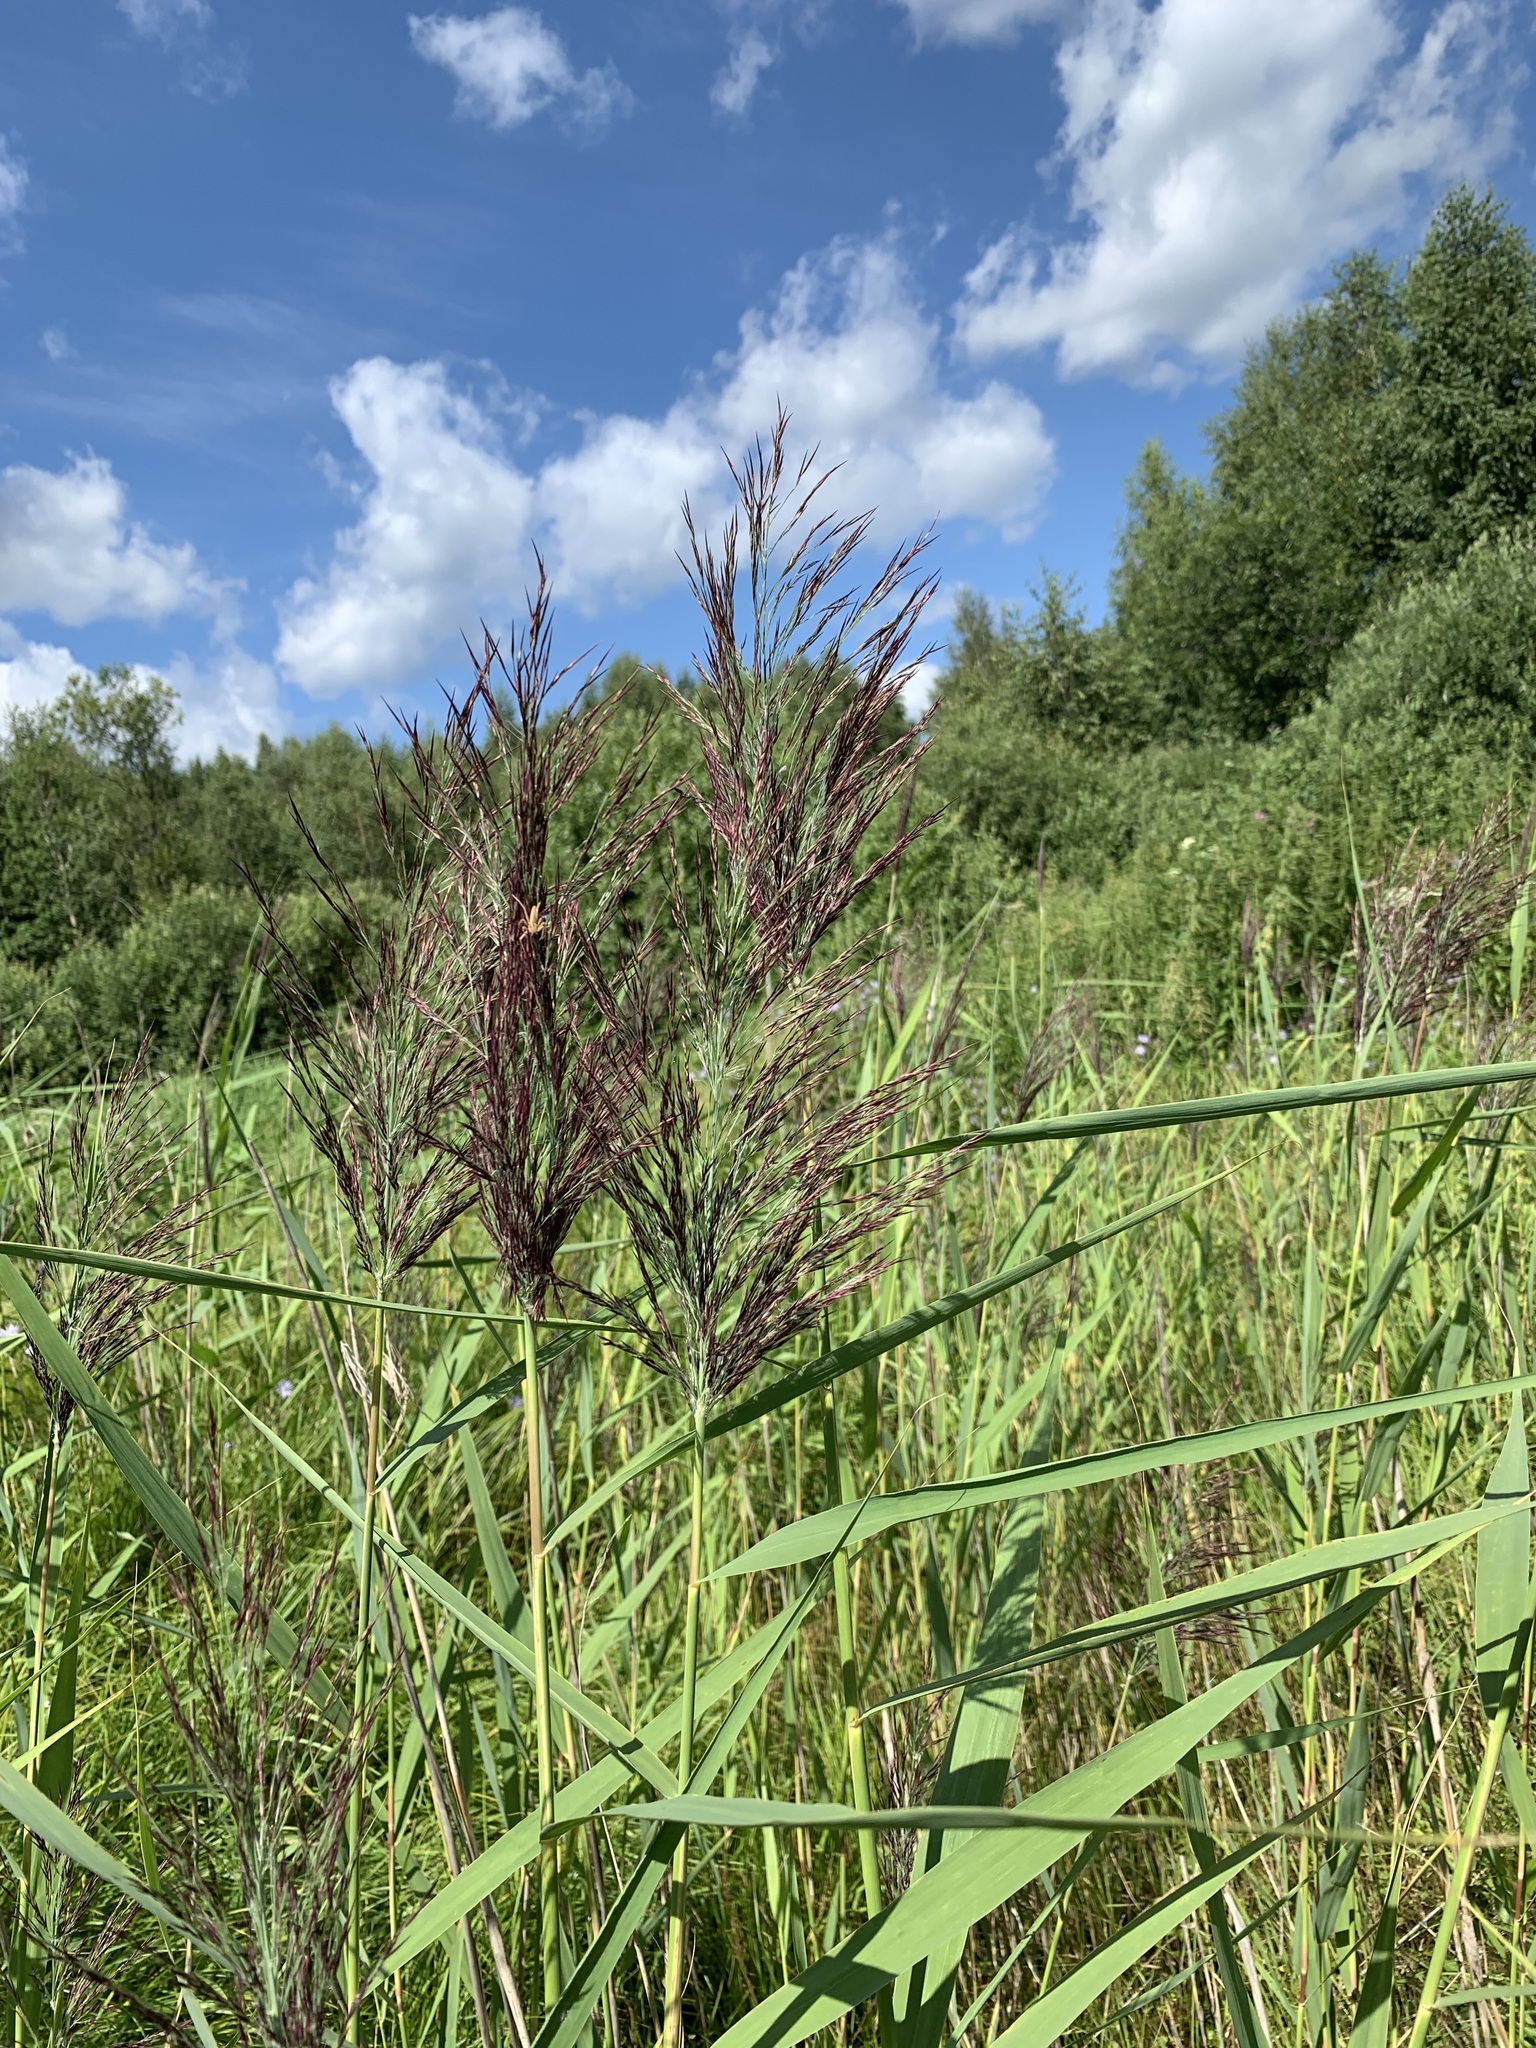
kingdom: Plantae
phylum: Tracheophyta
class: Liliopsida
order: Poales
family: Poaceae
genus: Phragmites
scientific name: Phragmites australis
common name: Common reed
